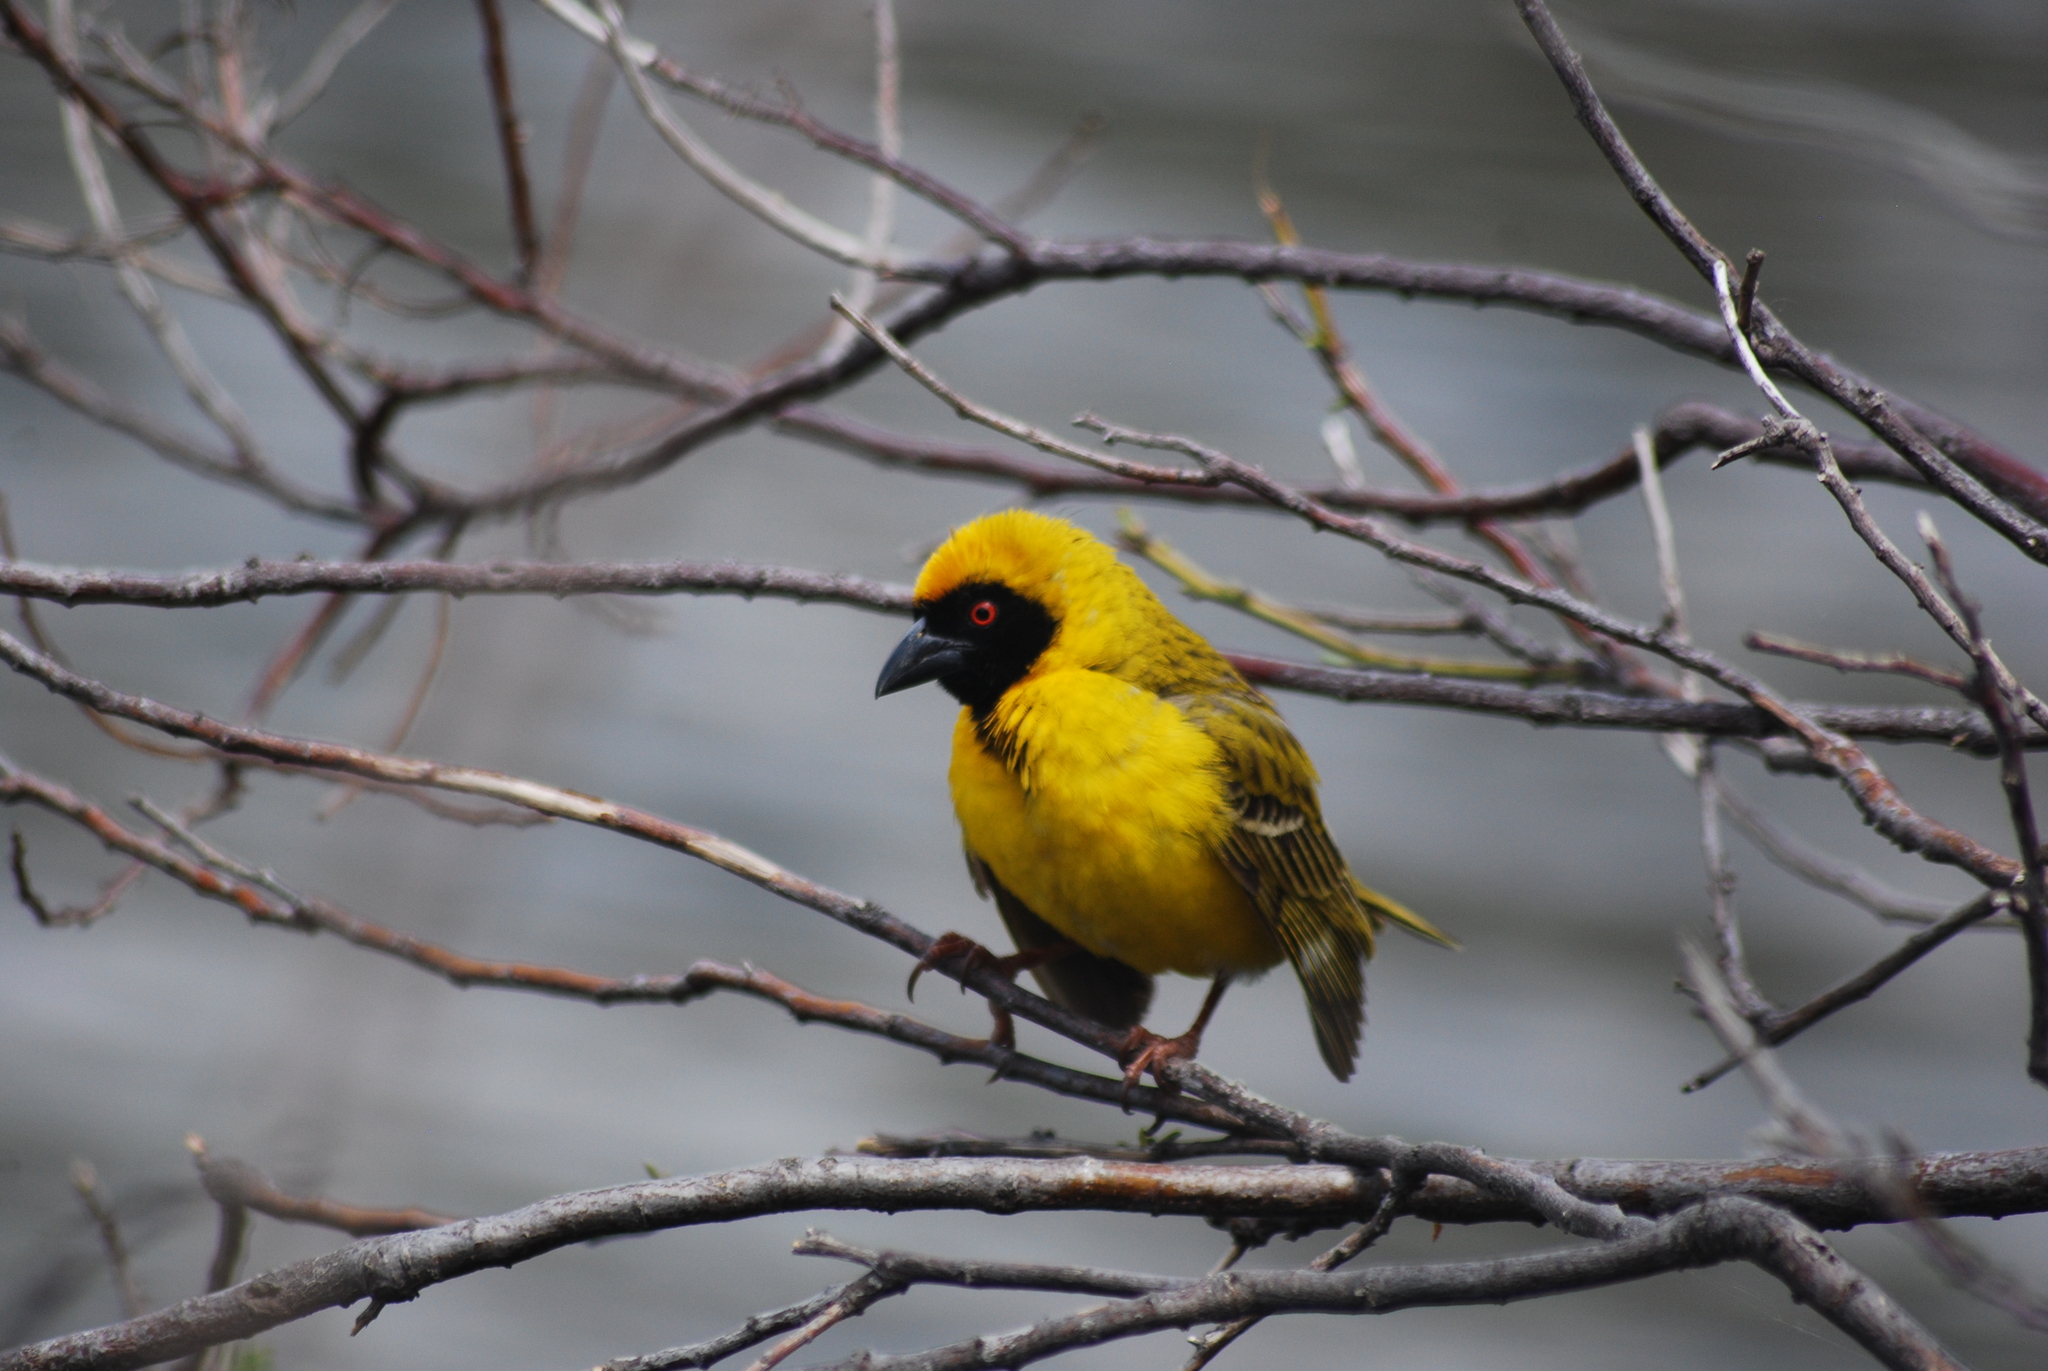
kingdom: Animalia
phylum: Chordata
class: Aves
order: Passeriformes
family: Ploceidae
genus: Ploceus
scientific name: Ploceus velatus
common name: Southern masked weaver
